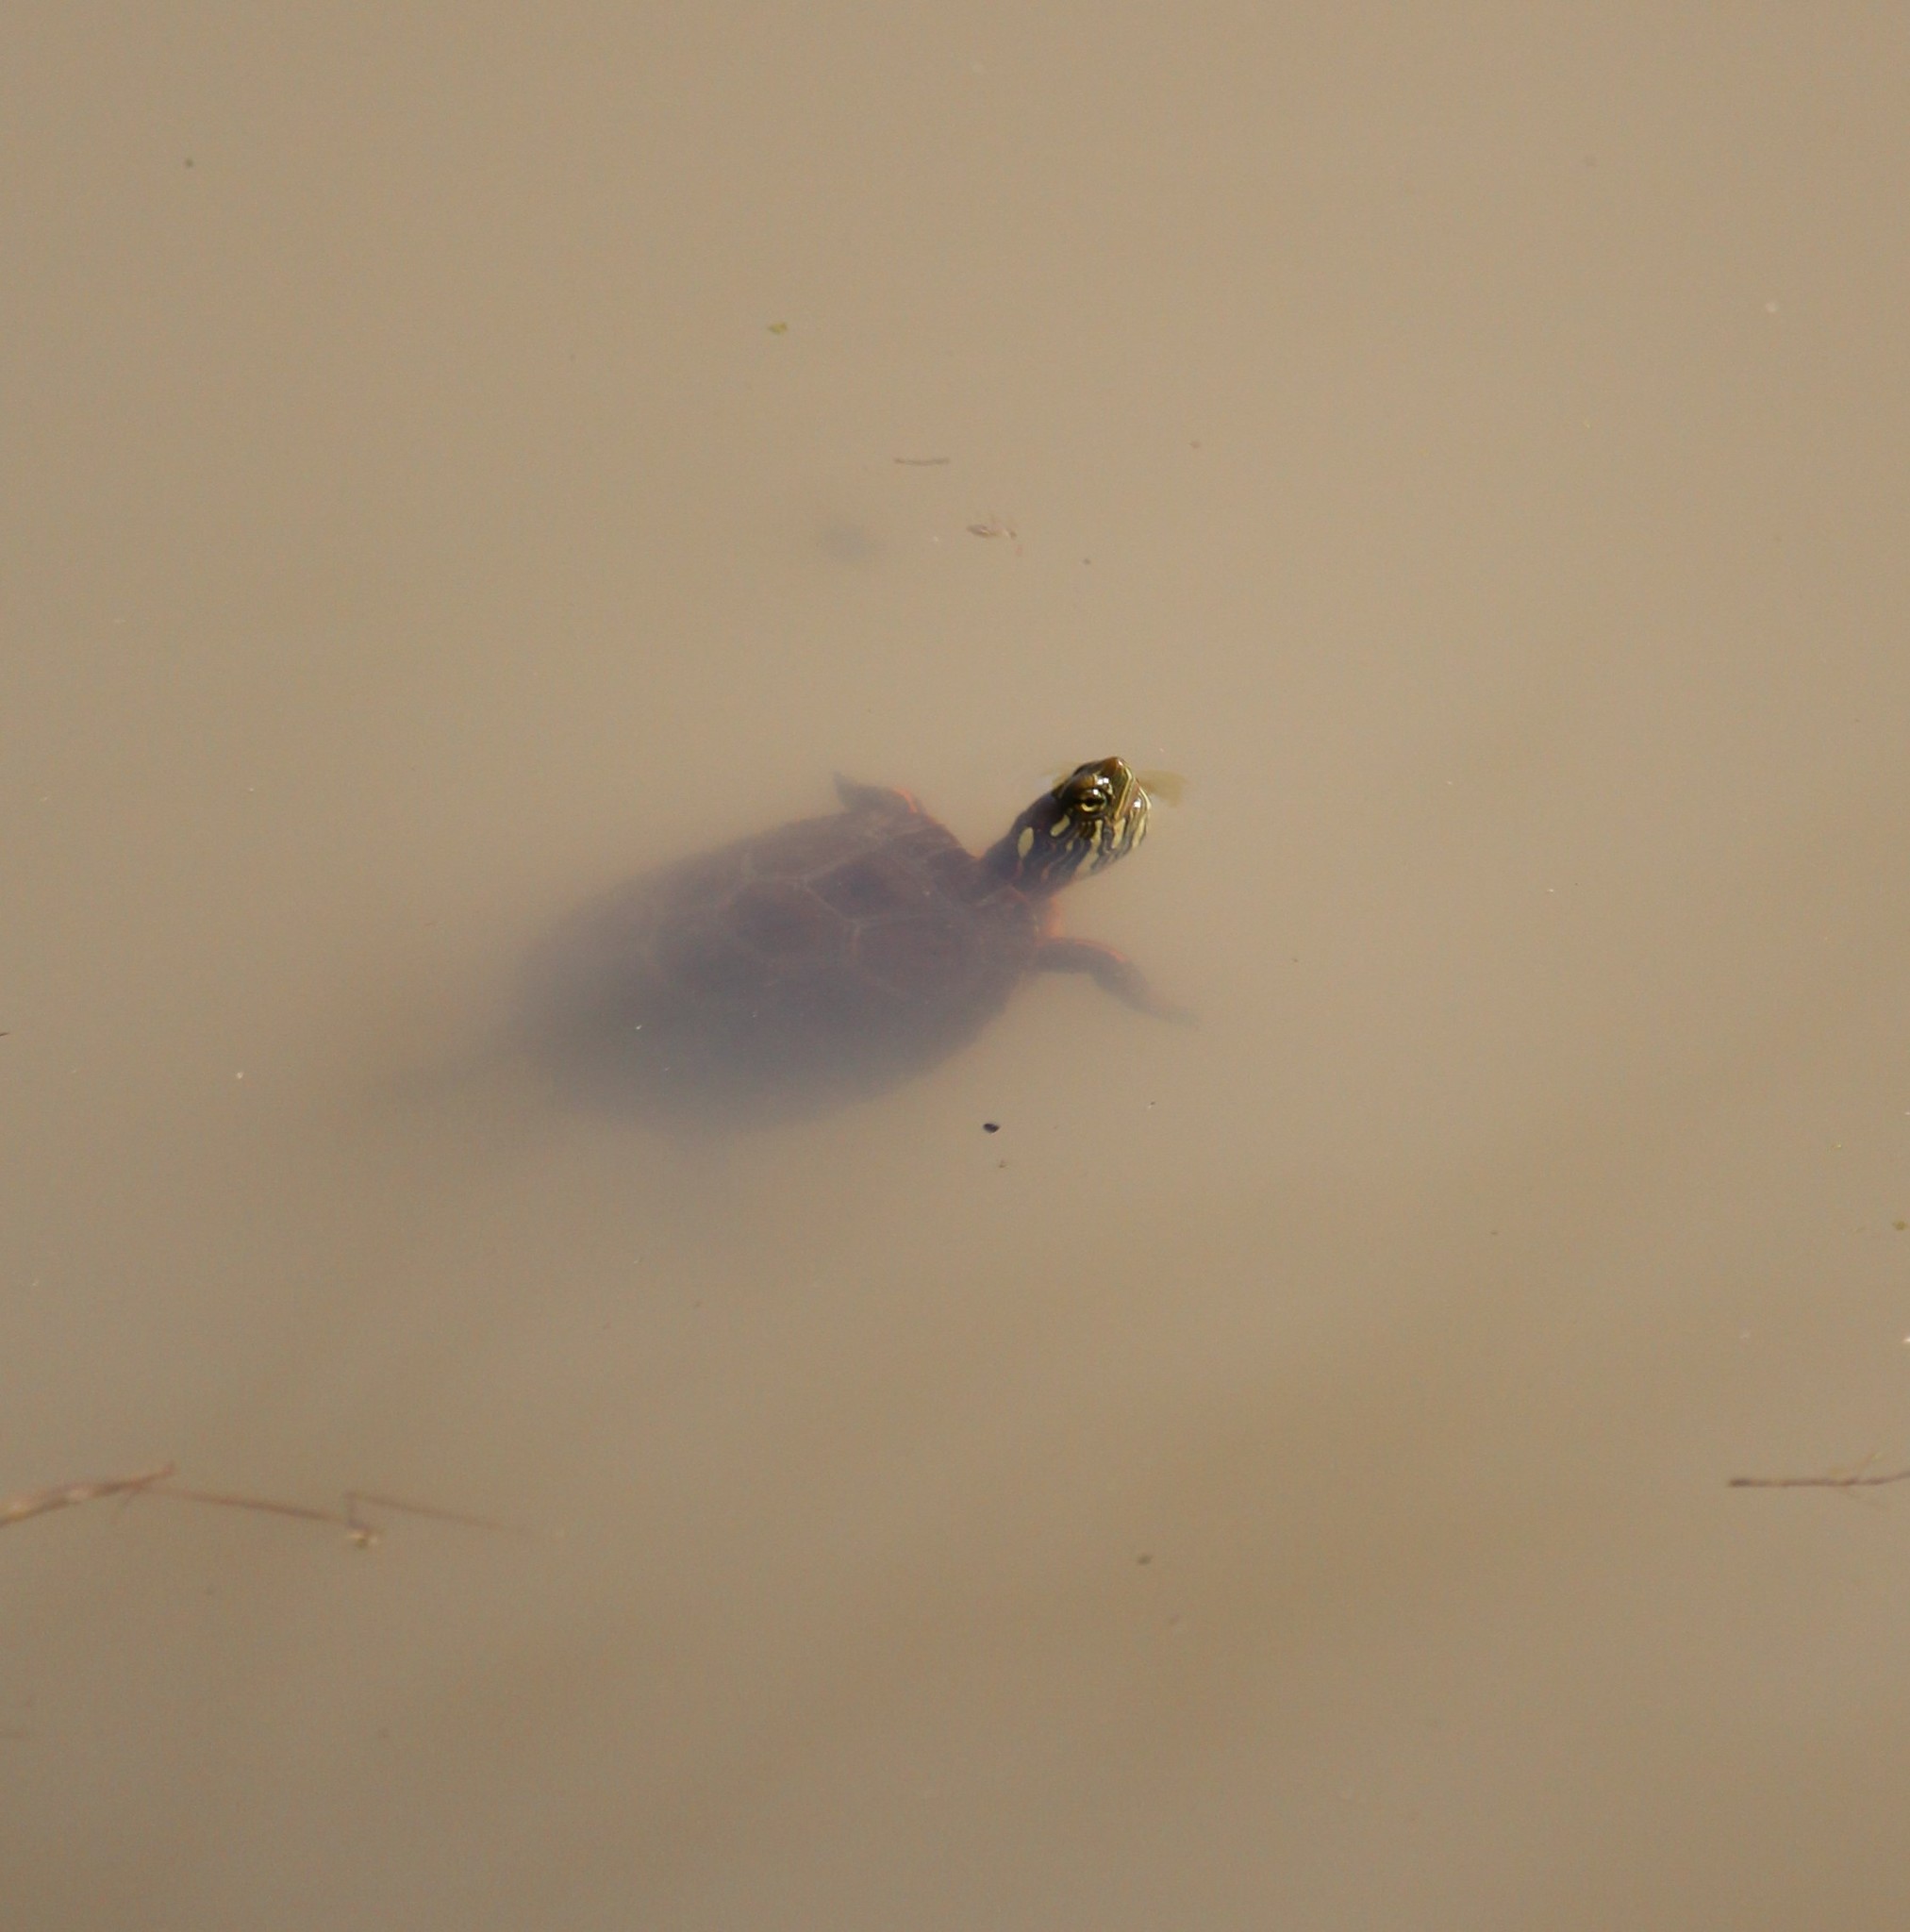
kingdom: Animalia
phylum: Chordata
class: Testudines
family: Emydidae
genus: Chrysemys
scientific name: Chrysemys picta
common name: Painted turtle
